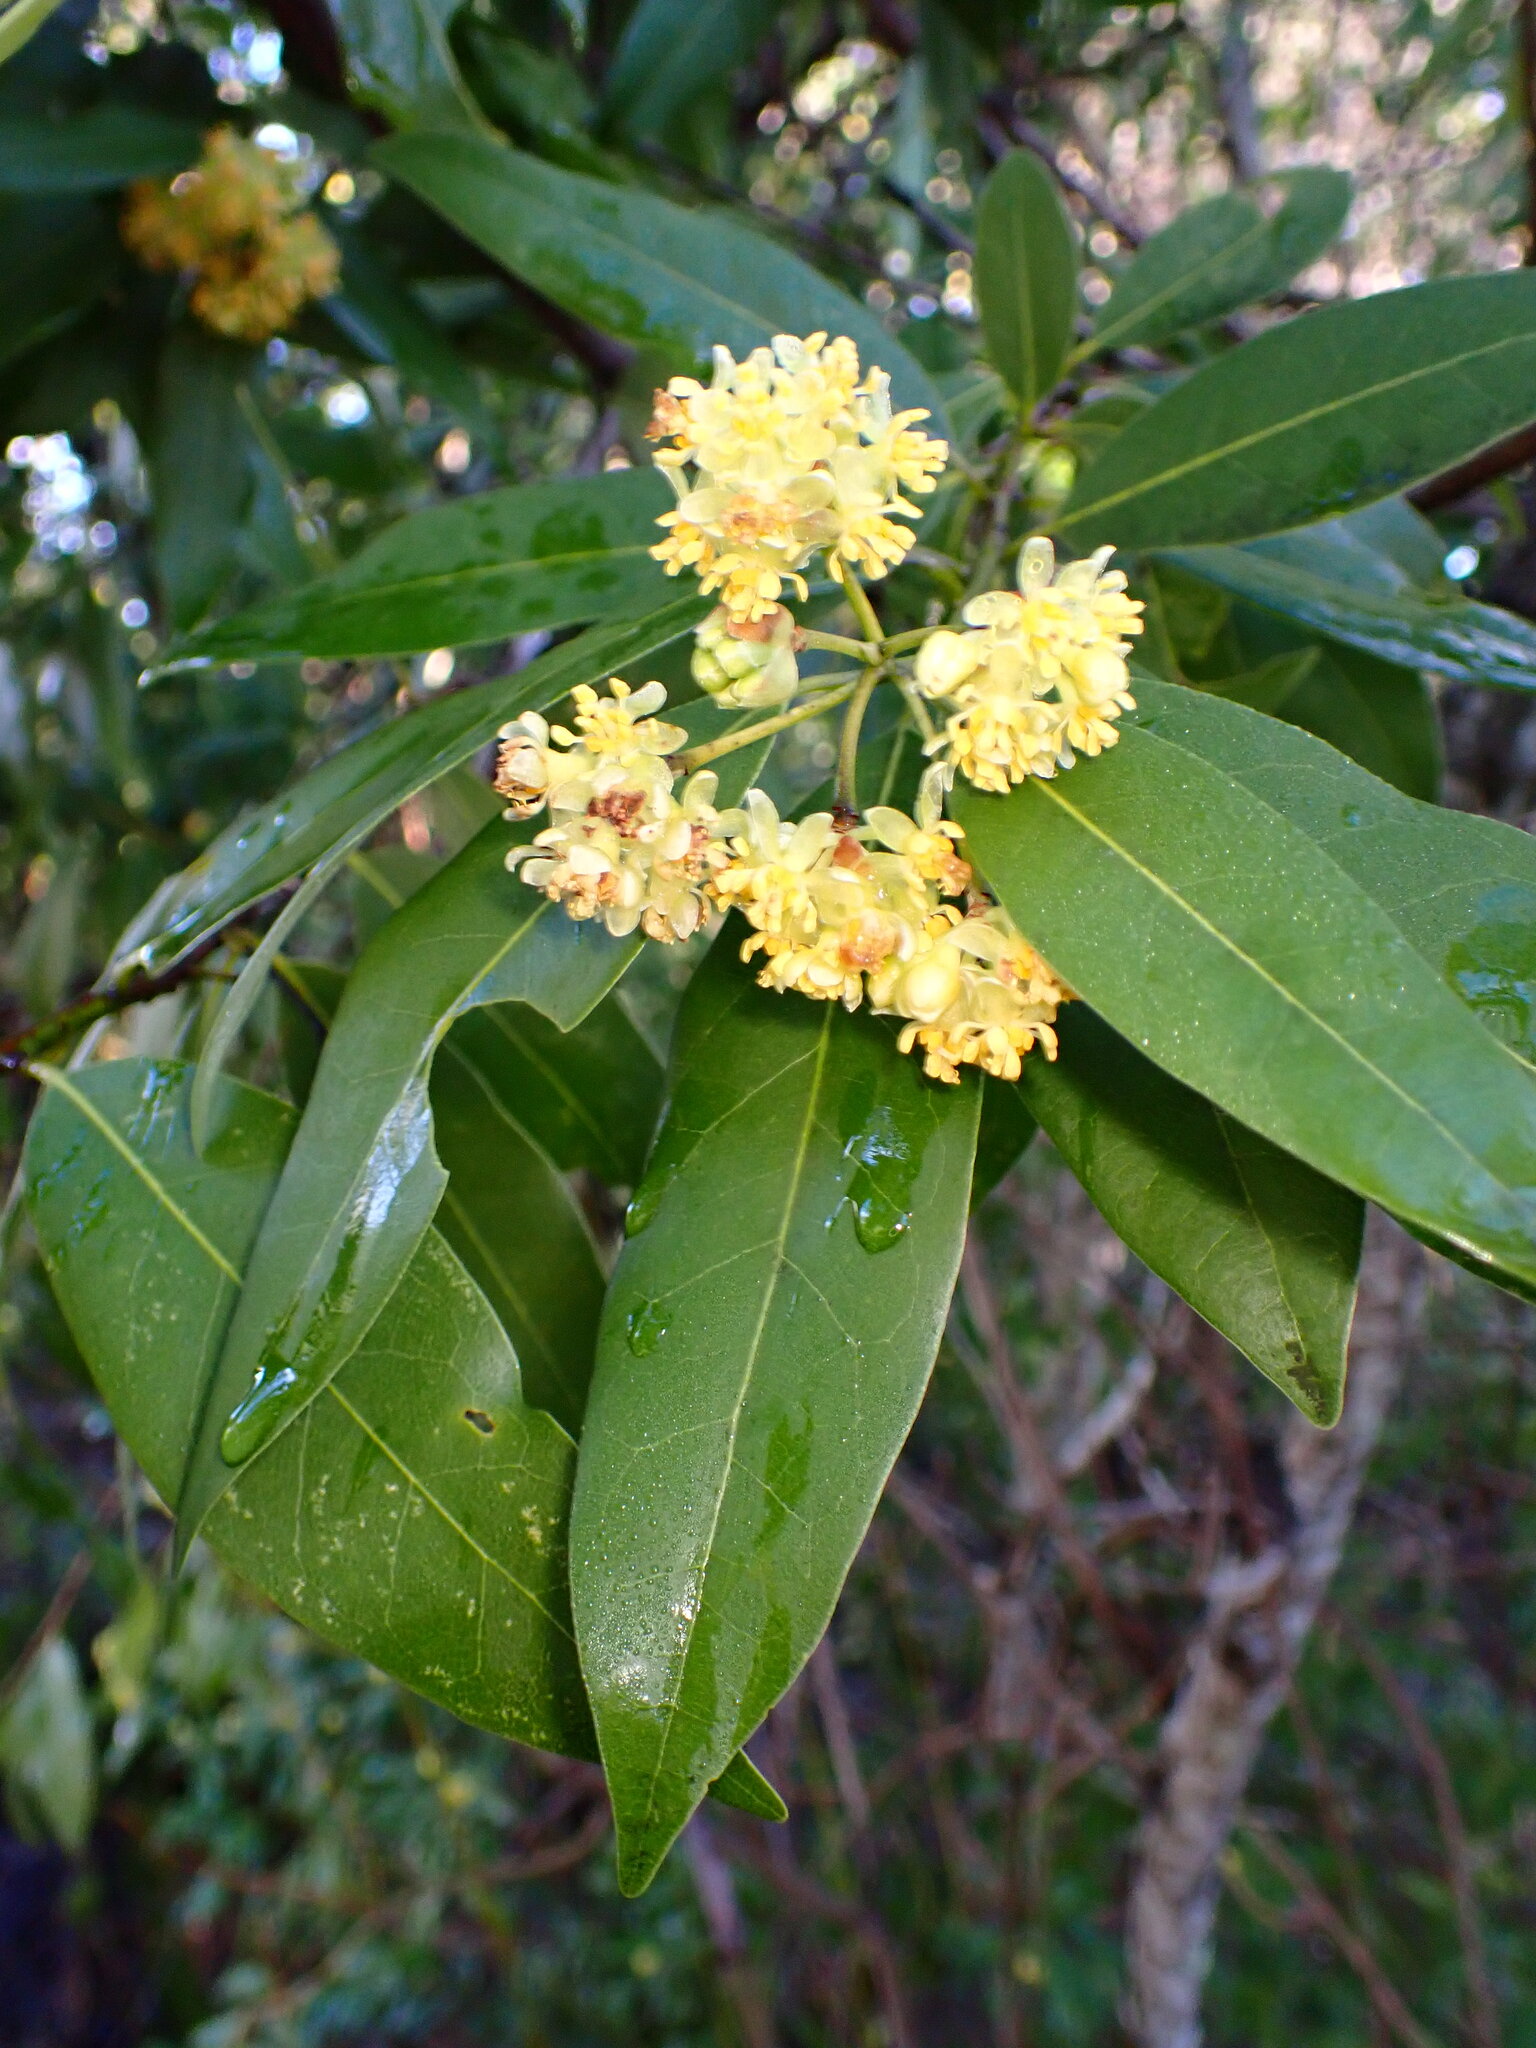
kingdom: Plantae
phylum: Tracheophyta
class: Magnoliopsida
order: Laurales
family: Lauraceae
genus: Umbellularia
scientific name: Umbellularia californica
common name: California bay
